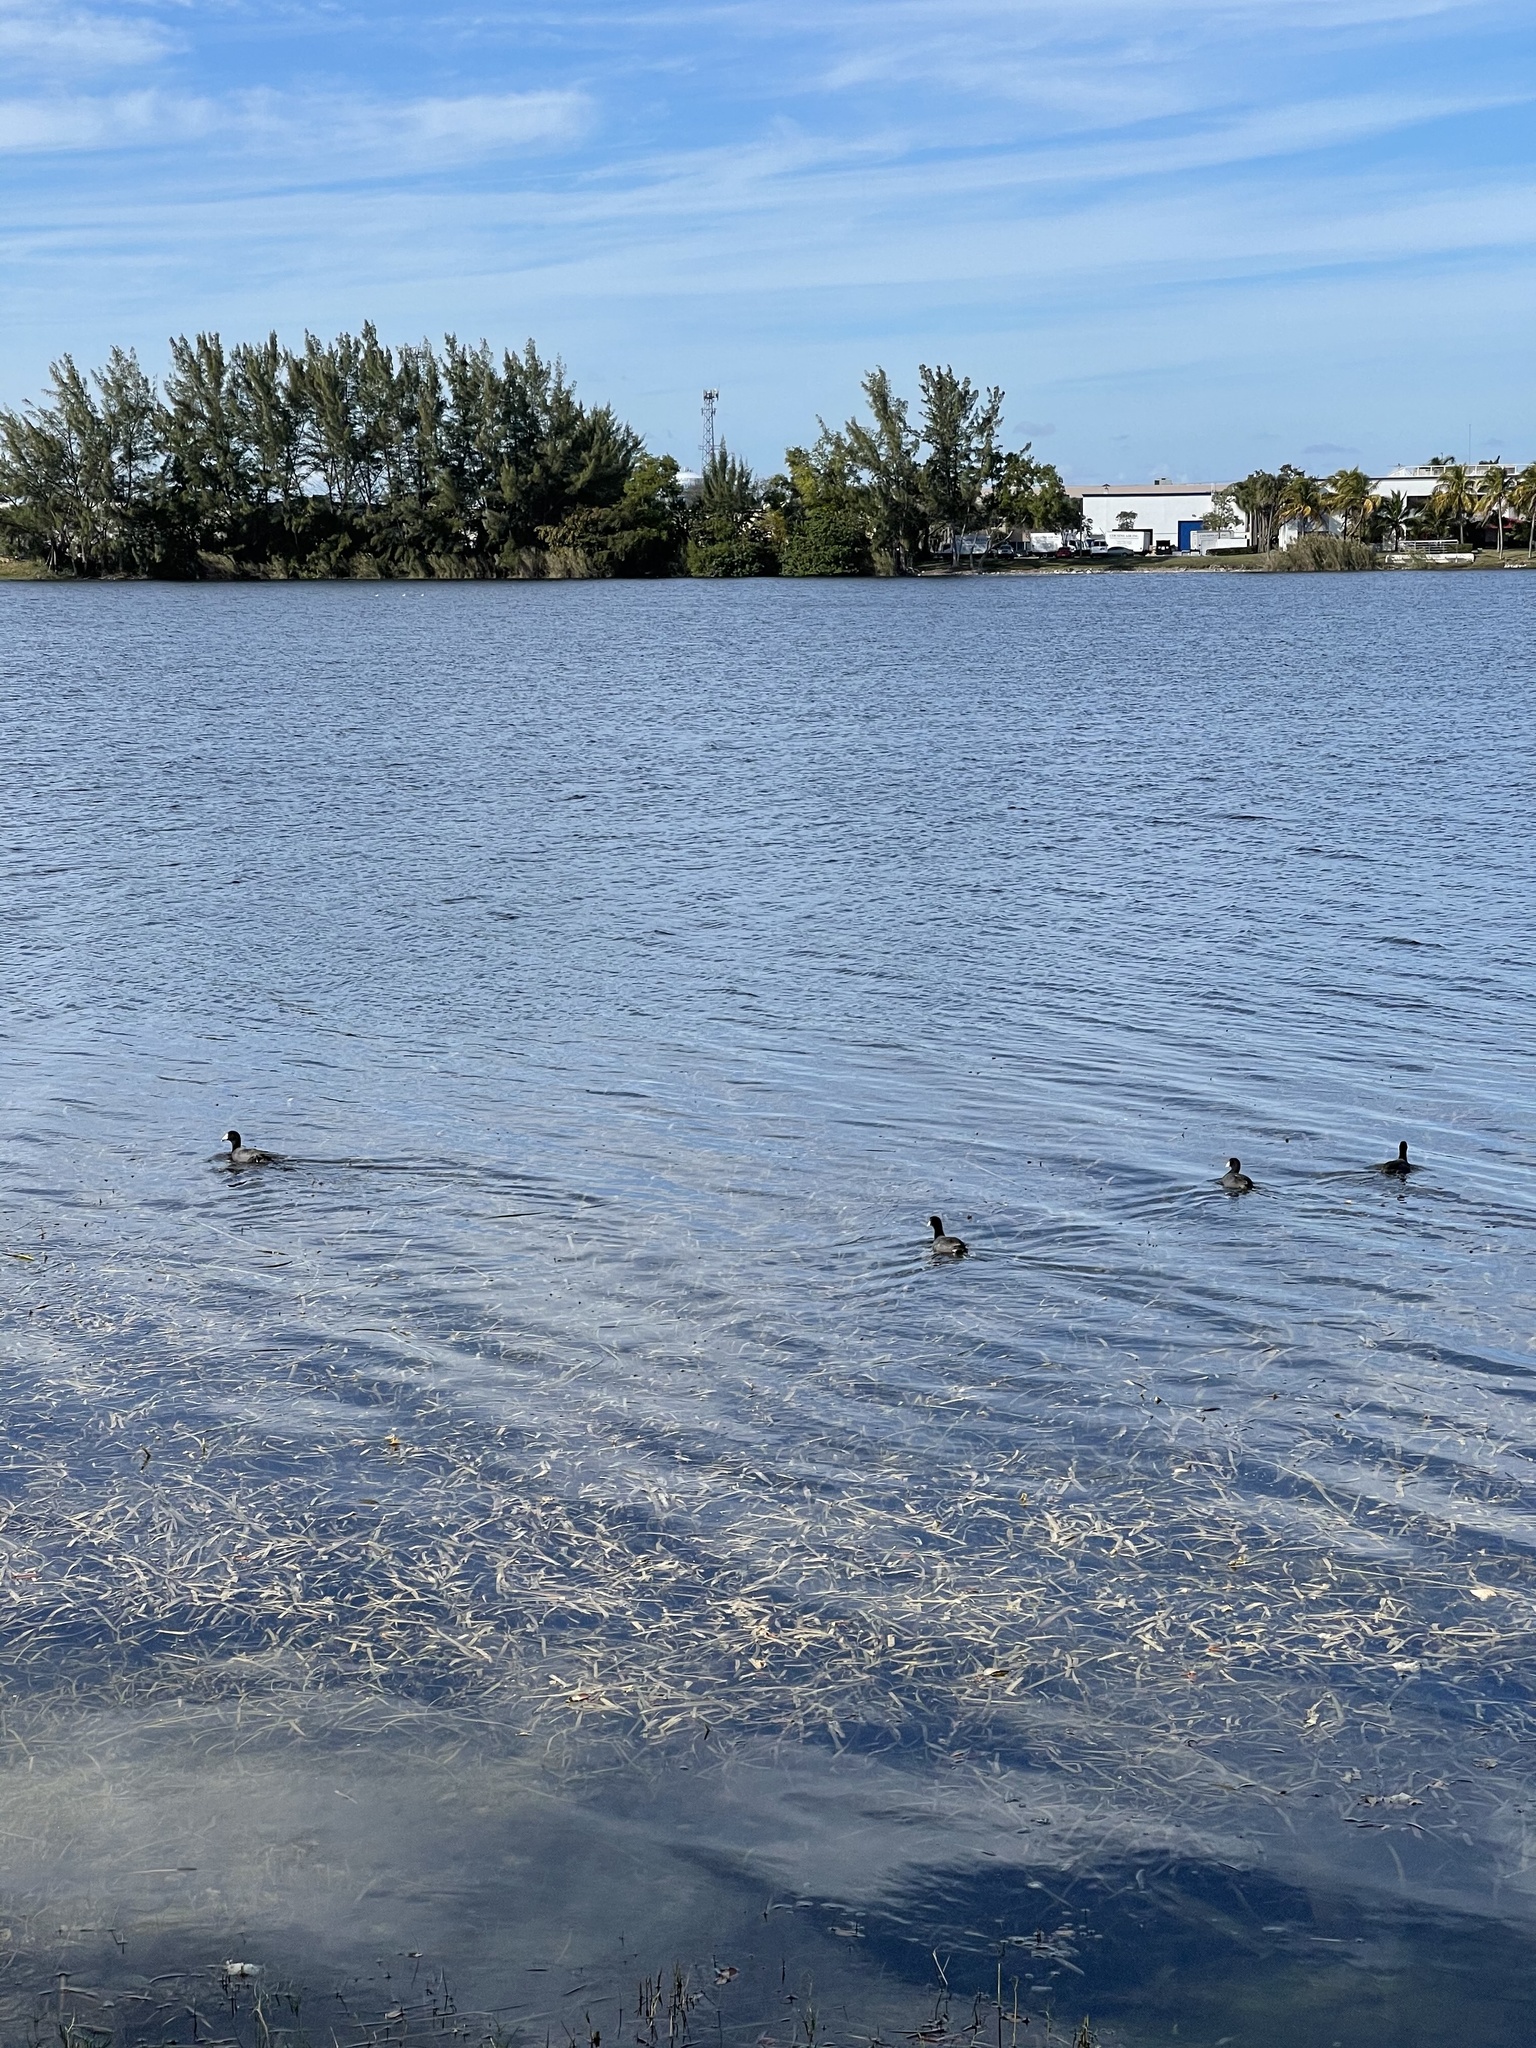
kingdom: Animalia
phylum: Chordata
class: Aves
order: Gruiformes
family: Rallidae
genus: Fulica
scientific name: Fulica americana
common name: American coot
